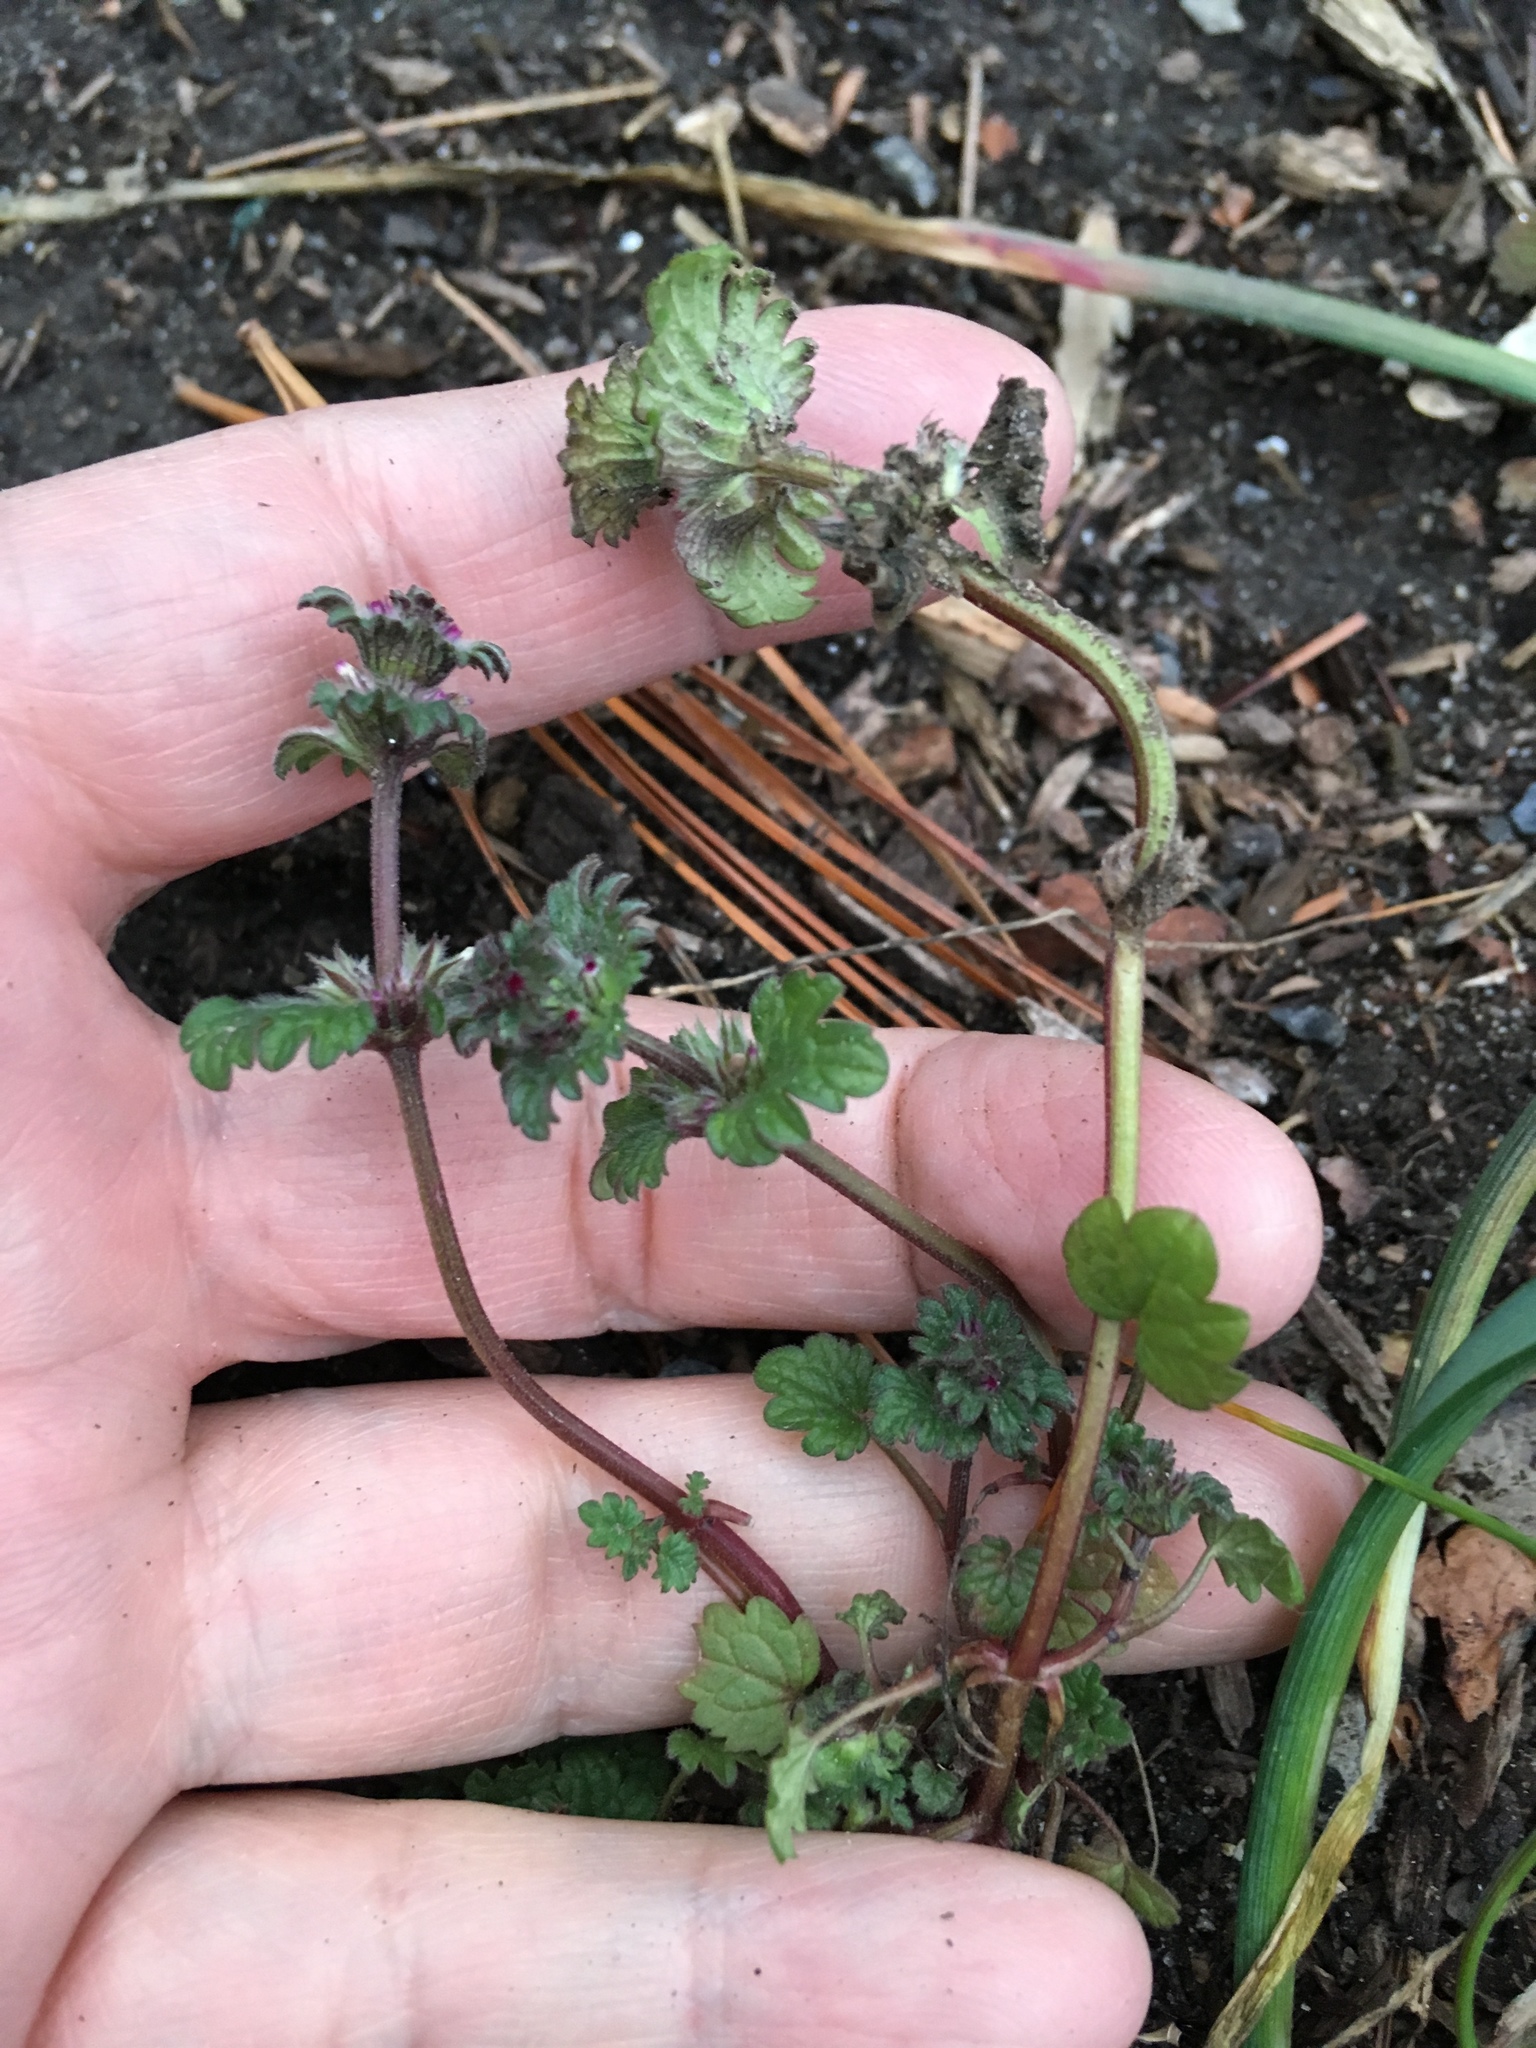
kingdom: Plantae
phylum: Tracheophyta
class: Magnoliopsida
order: Lamiales
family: Lamiaceae
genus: Lamium
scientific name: Lamium amplexicaule
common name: Henbit dead-nettle
